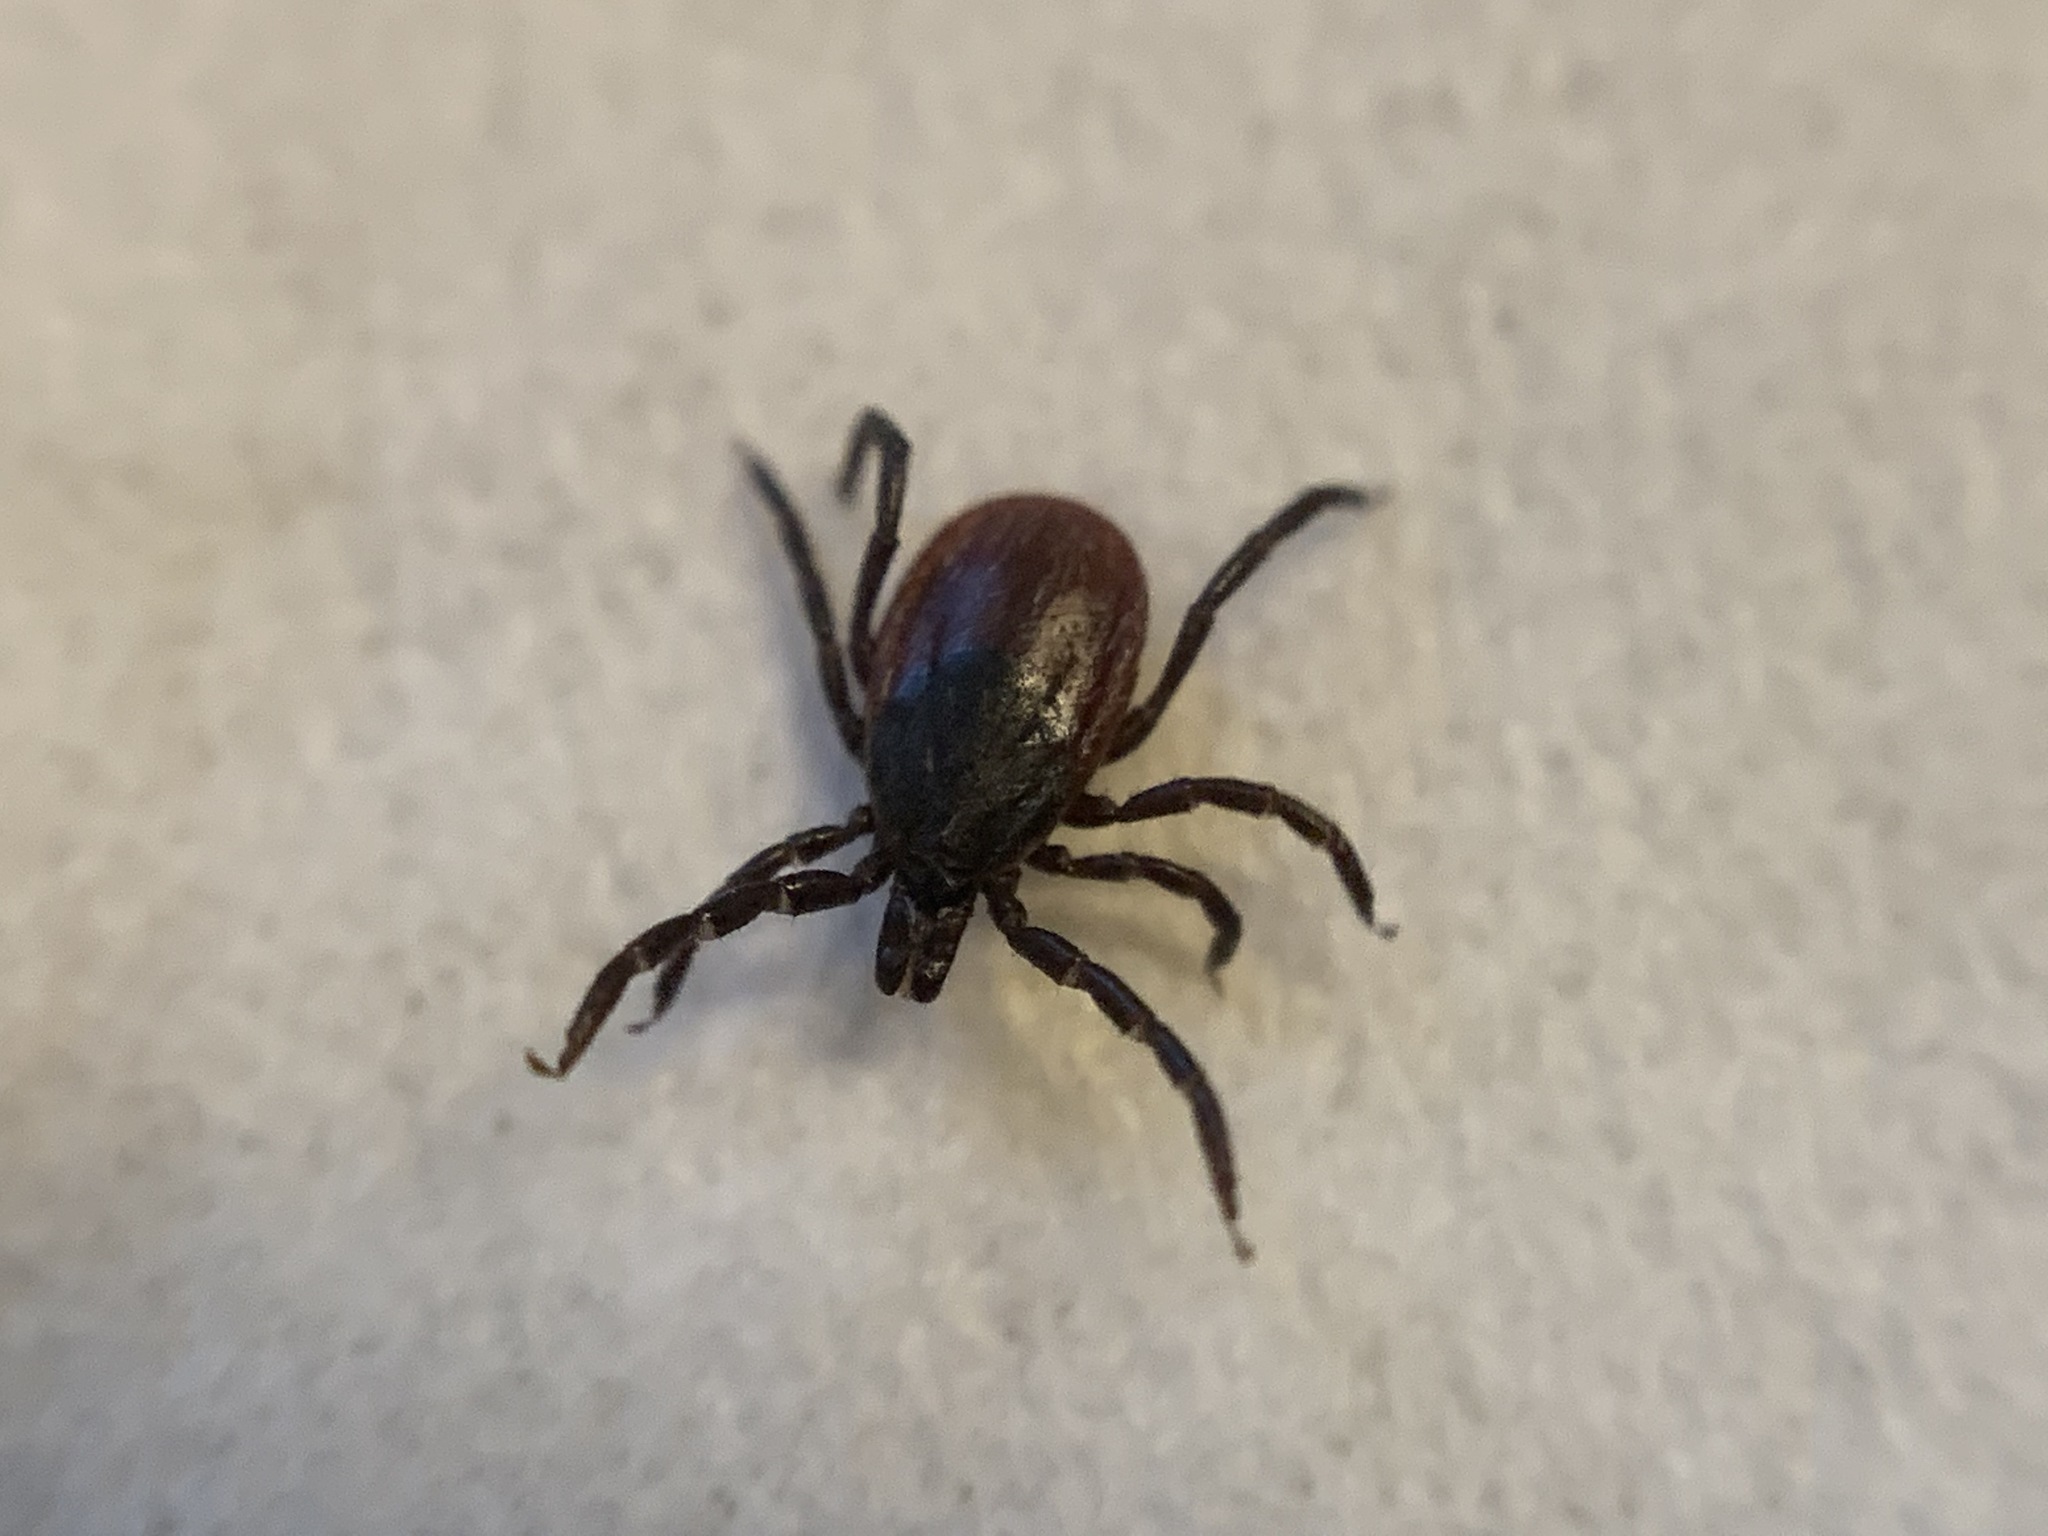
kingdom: Animalia
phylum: Arthropoda
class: Arachnida
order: Ixodida
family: Ixodidae
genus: Ixodes
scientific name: Ixodes pacificus
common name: California black-legged tick
